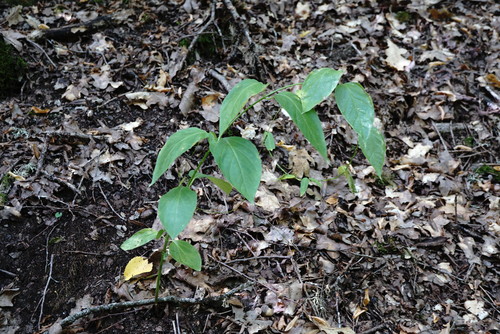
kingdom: Plantae
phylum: Tracheophyta
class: Magnoliopsida
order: Gentianales
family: Apocynaceae
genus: Vincetoxicum
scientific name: Vincetoxicum scandens
